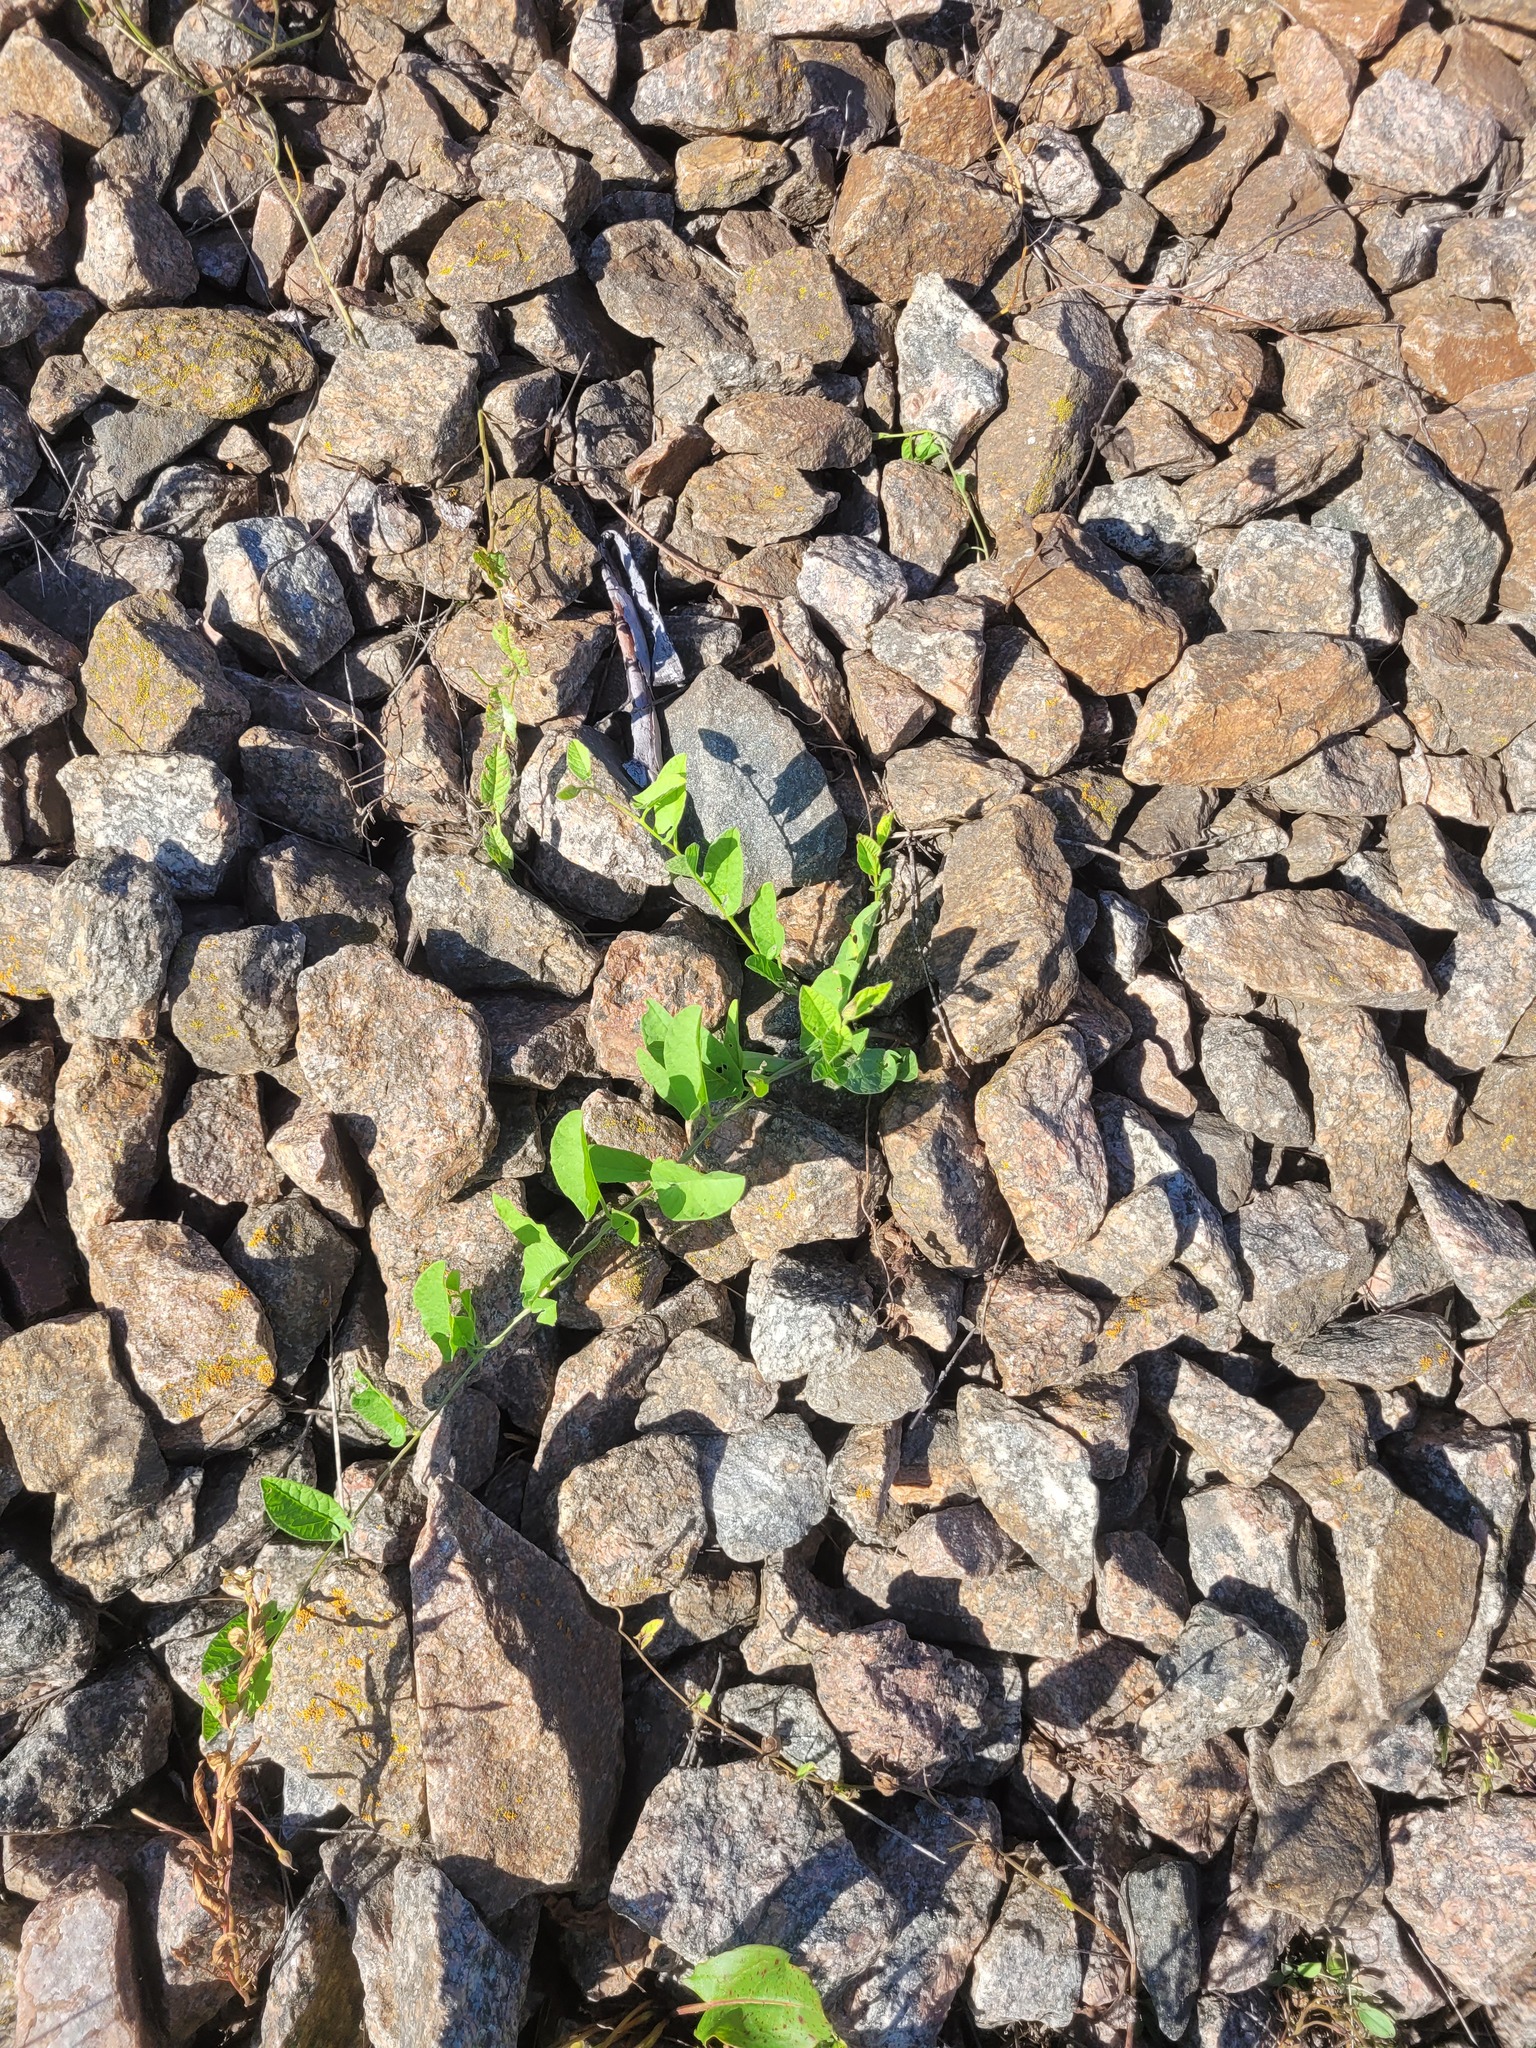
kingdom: Plantae
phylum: Tracheophyta
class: Magnoliopsida
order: Solanales
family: Convolvulaceae
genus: Convolvulus
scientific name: Convolvulus arvensis
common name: Field bindweed
